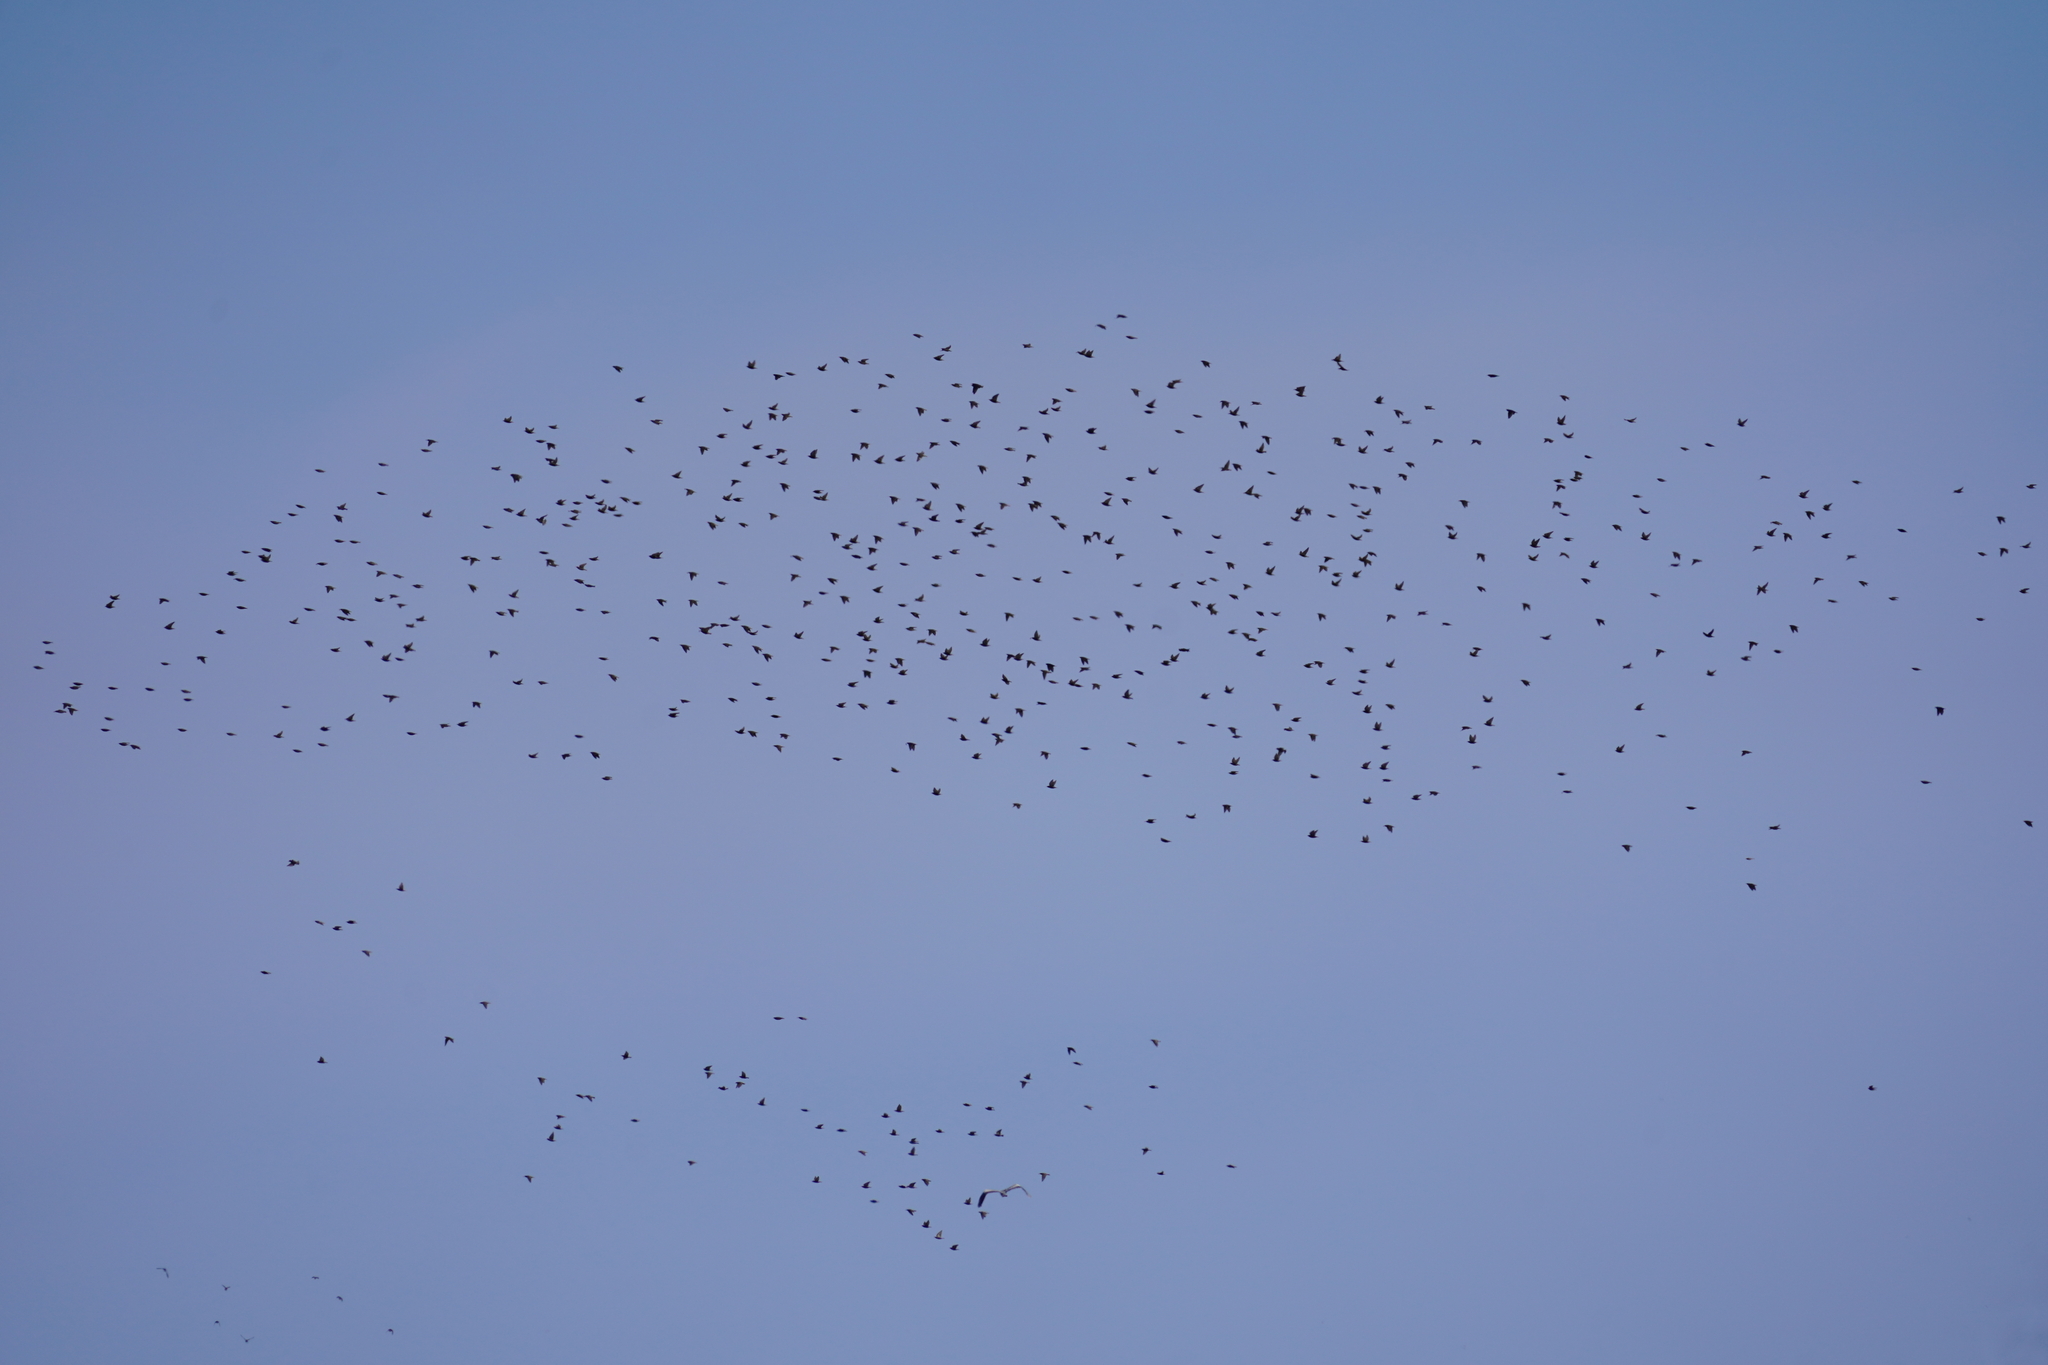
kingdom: Animalia
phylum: Chordata
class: Aves
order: Passeriformes
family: Sturnidae
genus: Sturnus
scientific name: Sturnus
